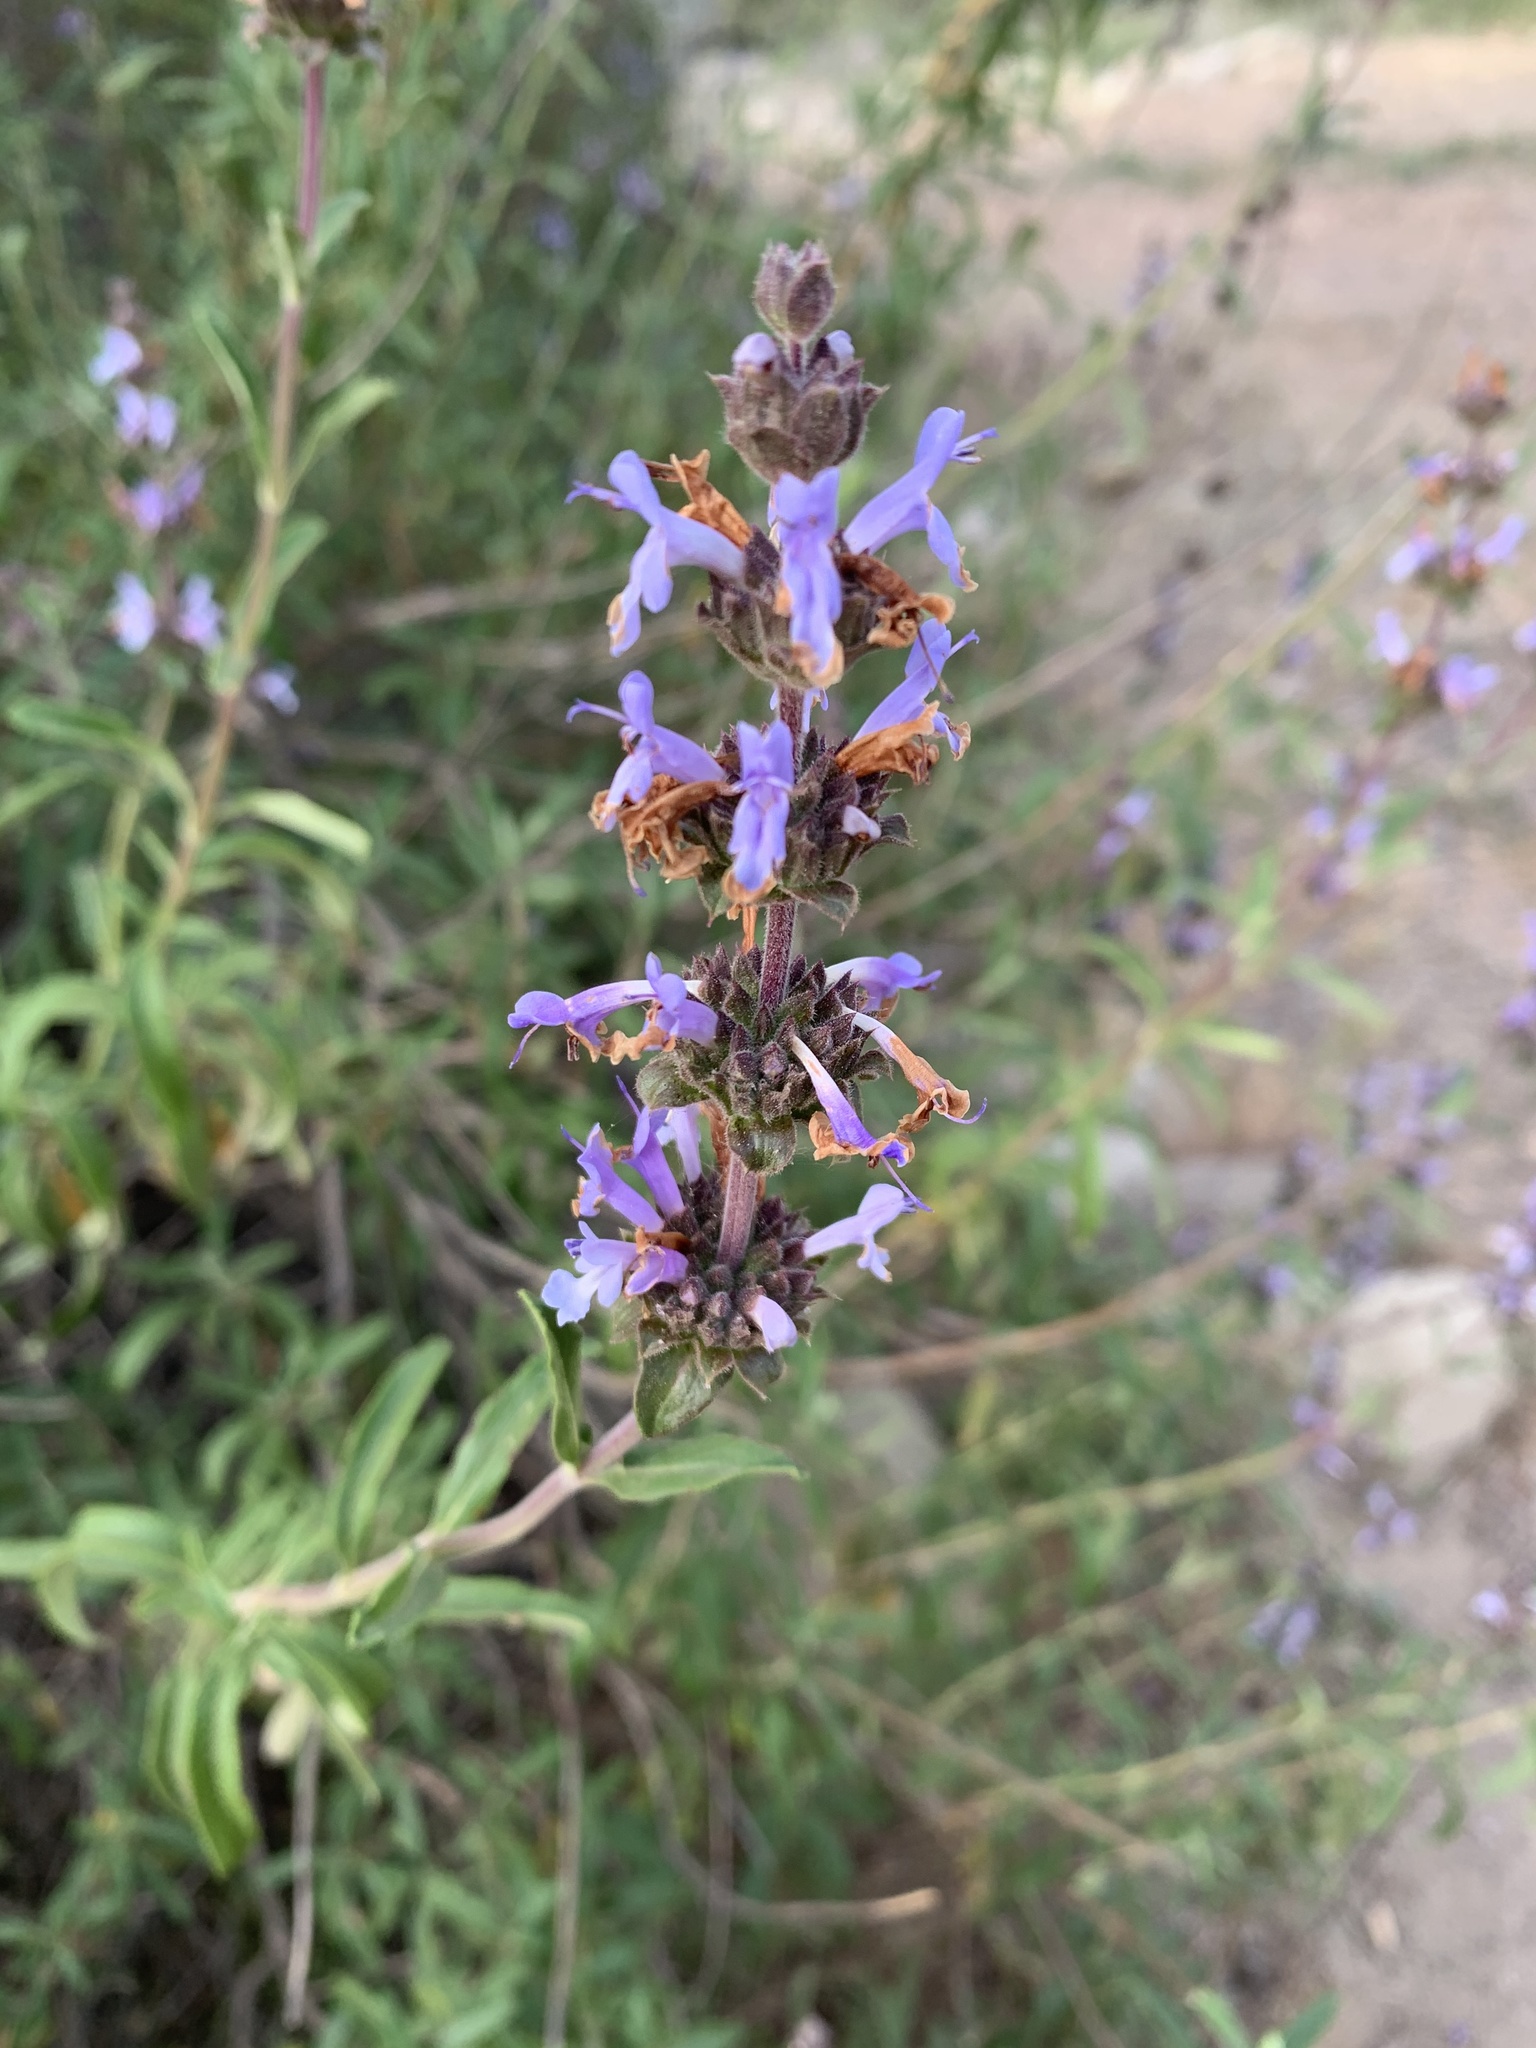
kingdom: Plantae
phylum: Tracheophyta
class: Magnoliopsida
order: Lamiales
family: Lamiaceae
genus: Salvia
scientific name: Salvia mellifera
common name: Black sage
